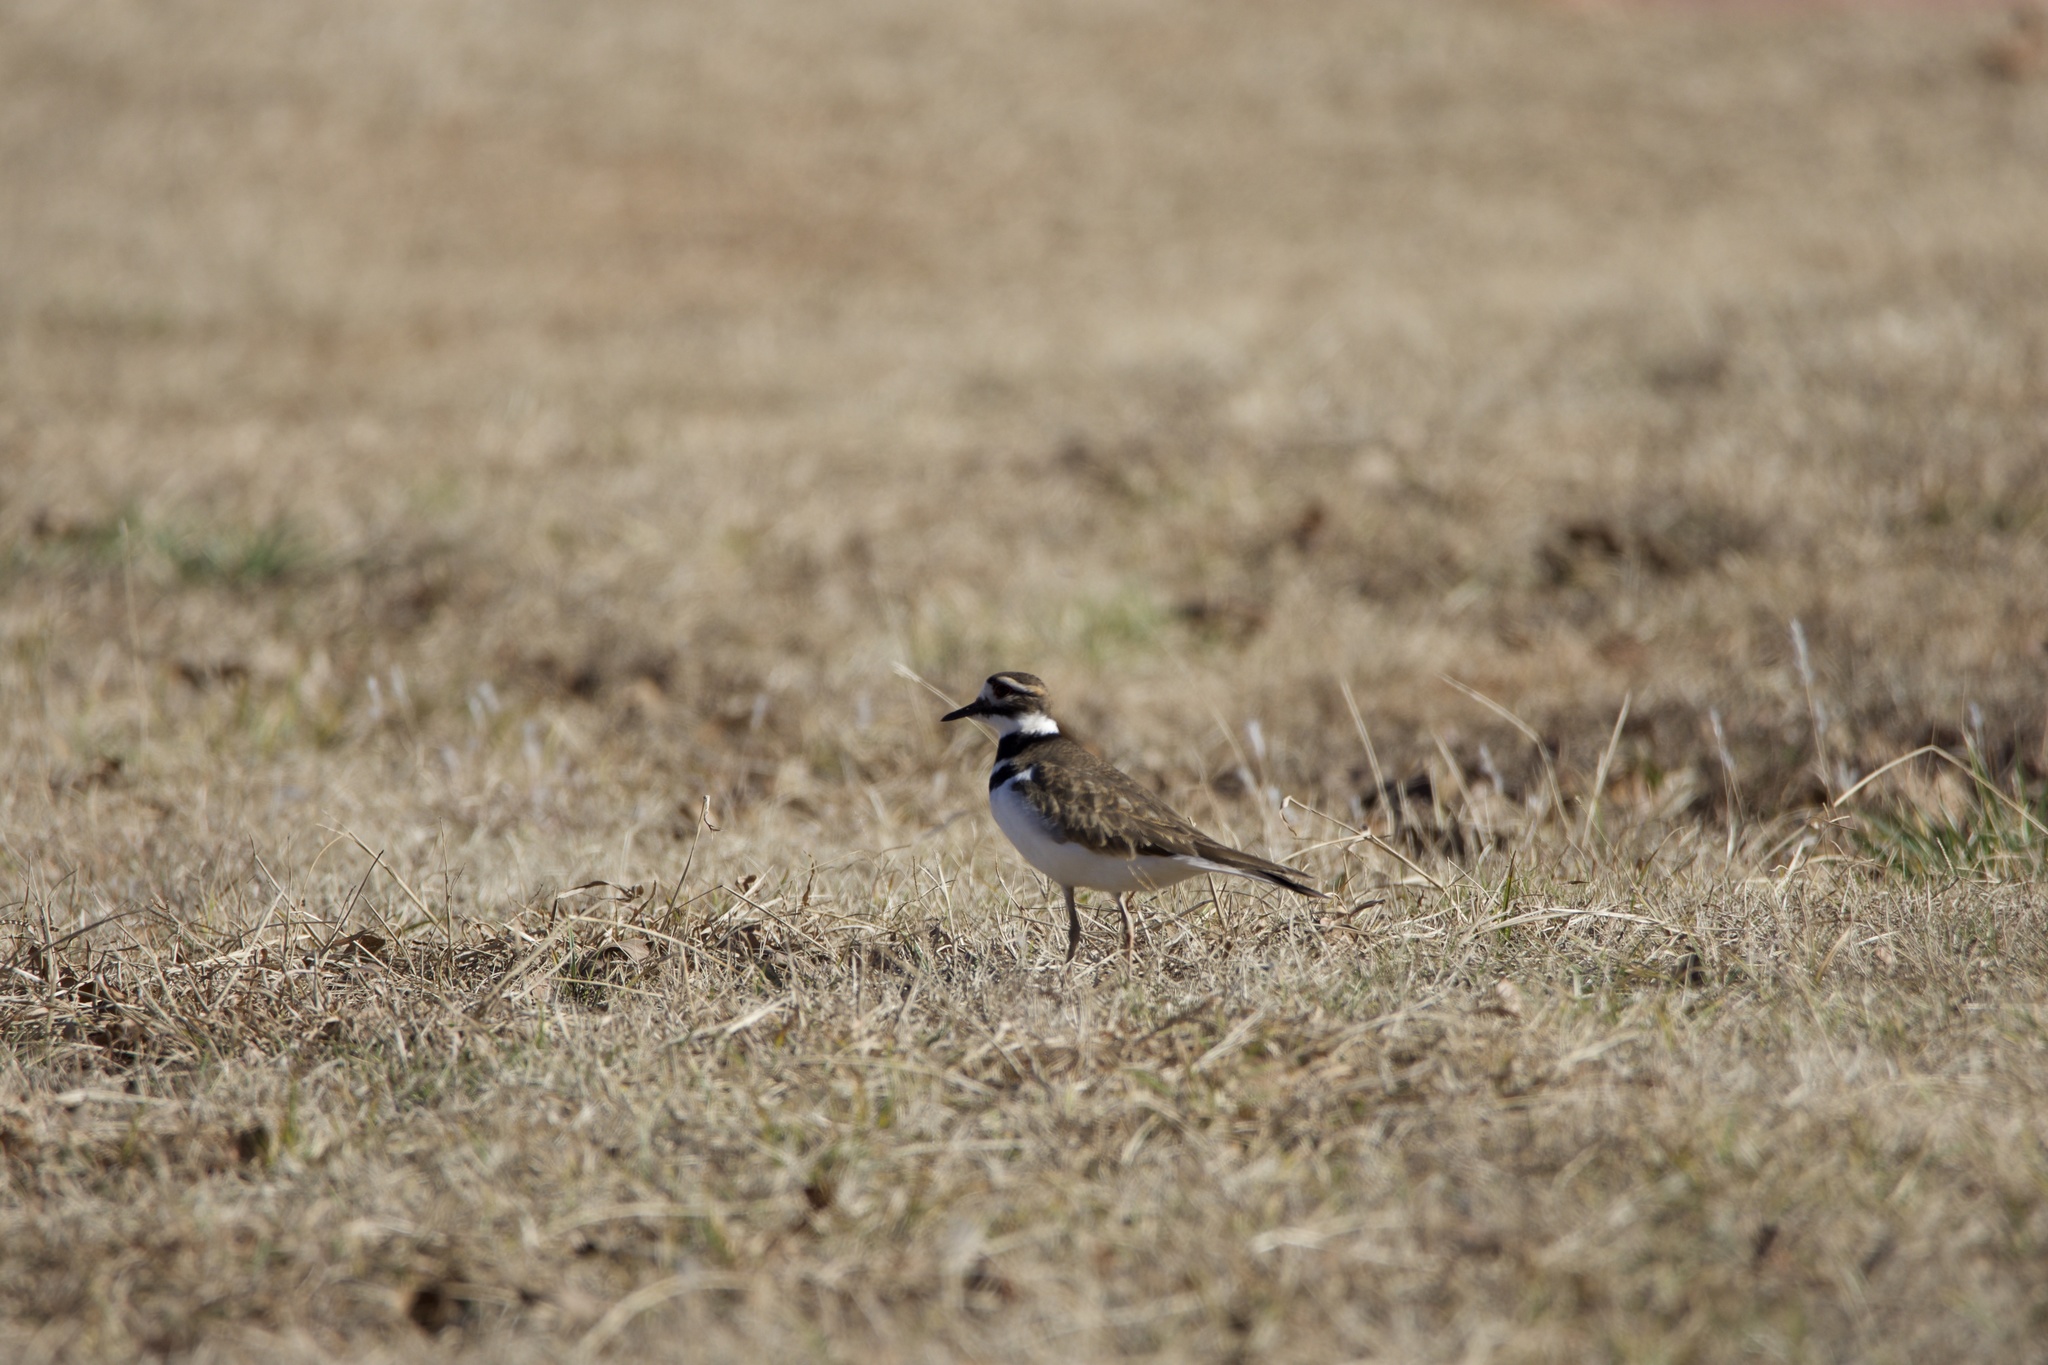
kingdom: Animalia
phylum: Chordata
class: Aves
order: Charadriiformes
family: Charadriidae
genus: Charadrius
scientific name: Charadrius vociferus
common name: Killdeer
